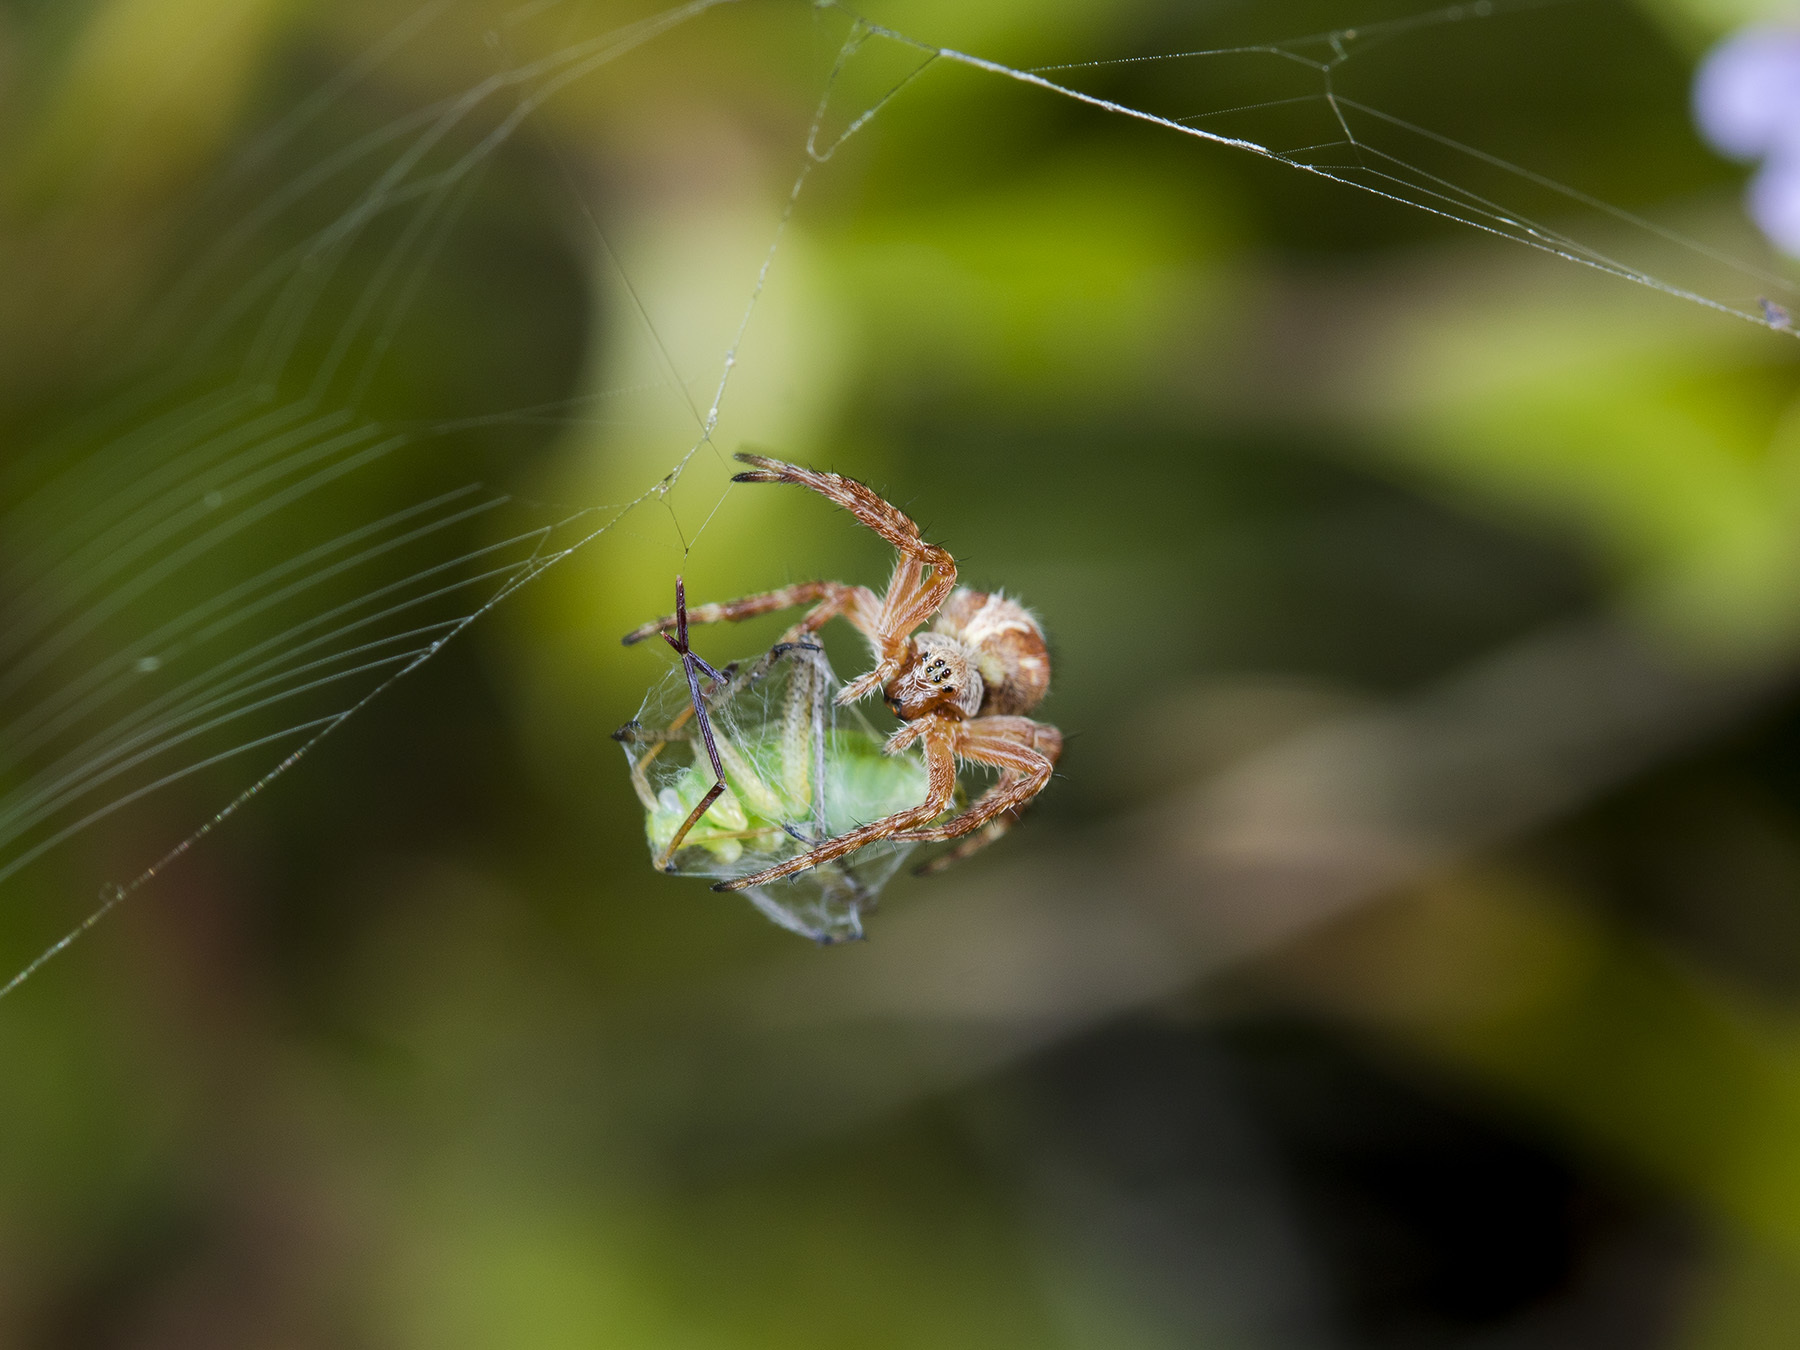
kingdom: Animalia
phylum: Arthropoda
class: Arachnida
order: Araneae
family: Araneidae
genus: Aculepeira
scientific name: Aculepeira packardi
